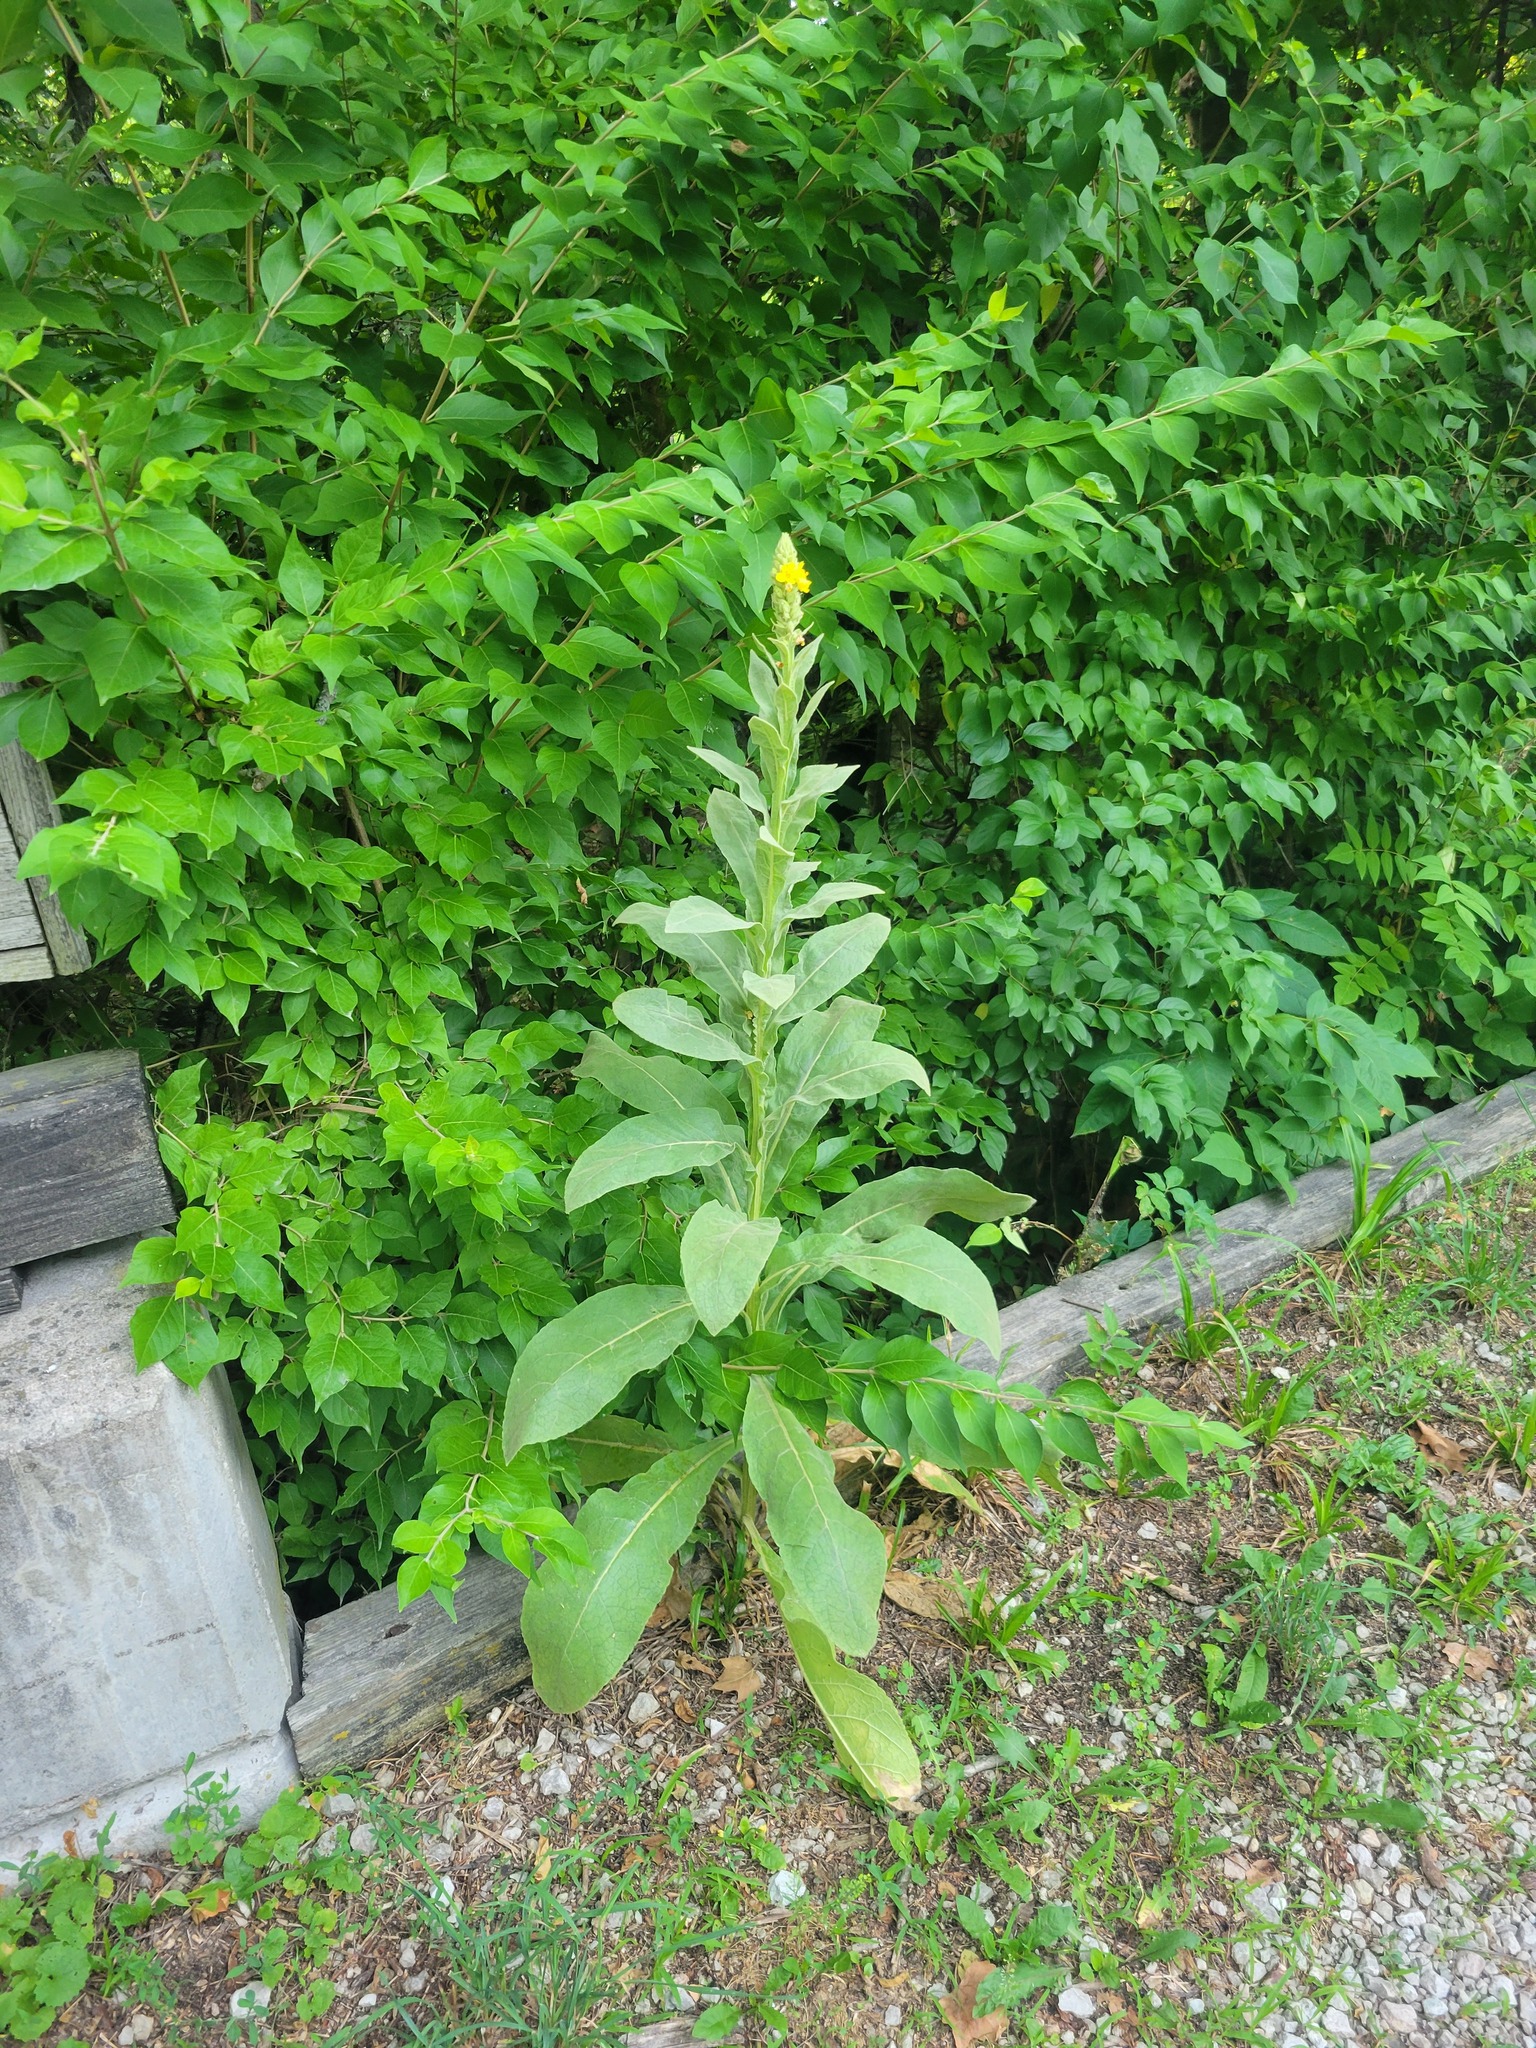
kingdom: Plantae
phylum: Tracheophyta
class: Magnoliopsida
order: Lamiales
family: Scrophulariaceae
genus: Verbascum
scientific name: Verbascum thapsus
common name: Common mullein
